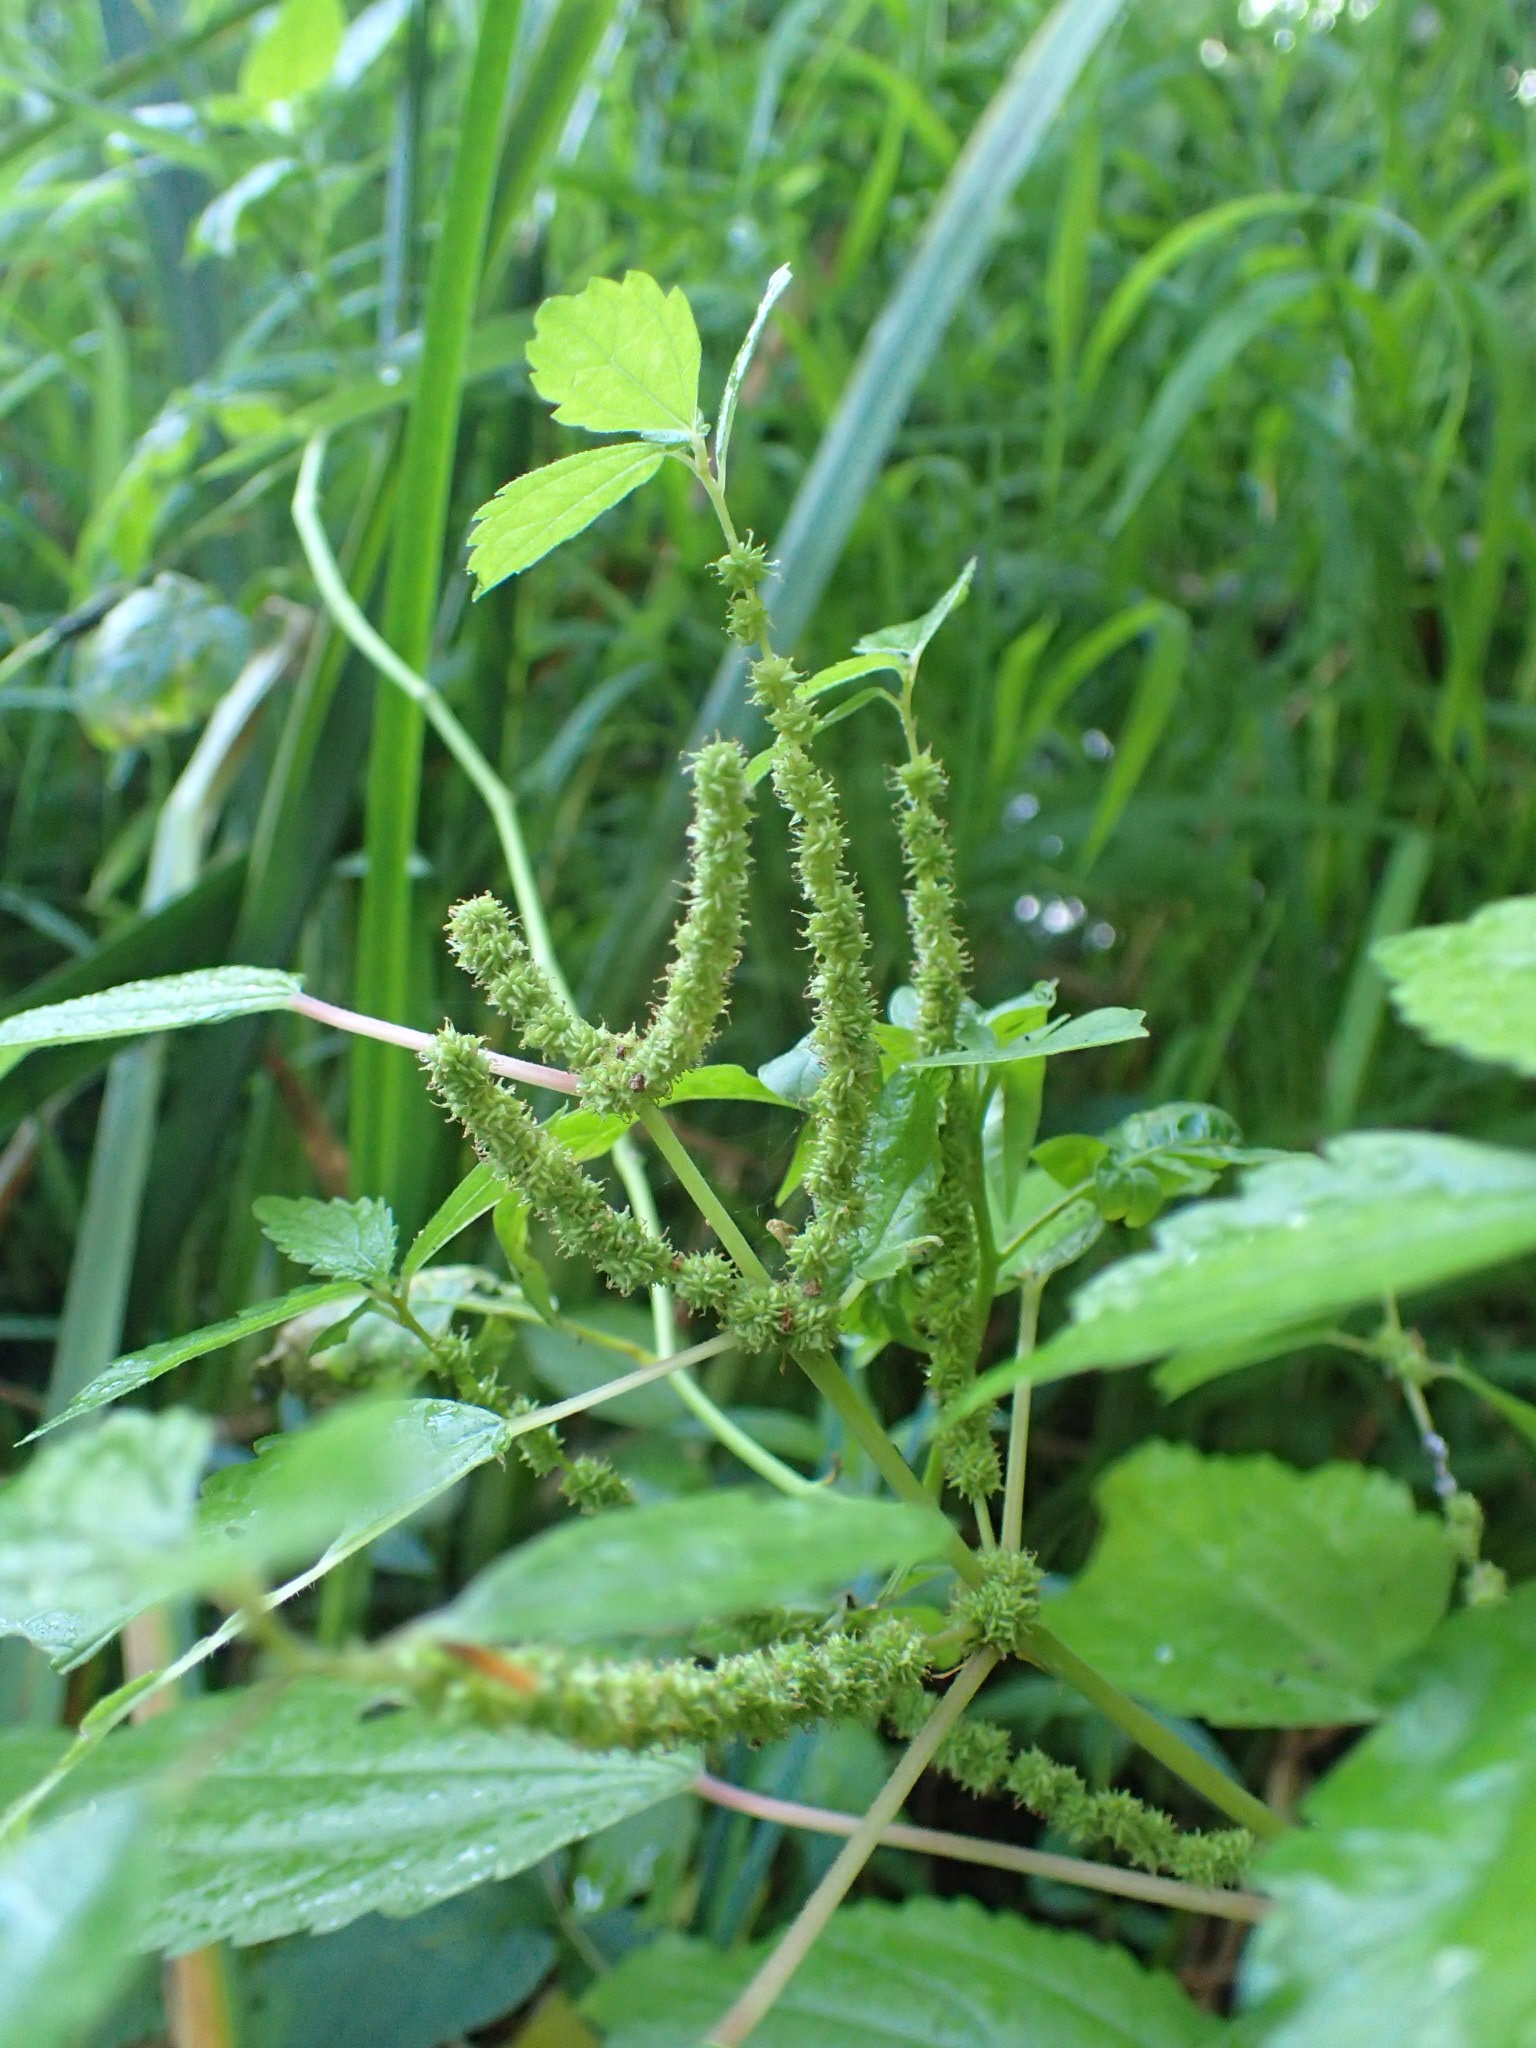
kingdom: Plantae
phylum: Tracheophyta
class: Magnoliopsida
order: Rosales
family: Urticaceae
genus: Boehmeria
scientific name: Boehmeria cylindrica
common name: Bog-hemp
